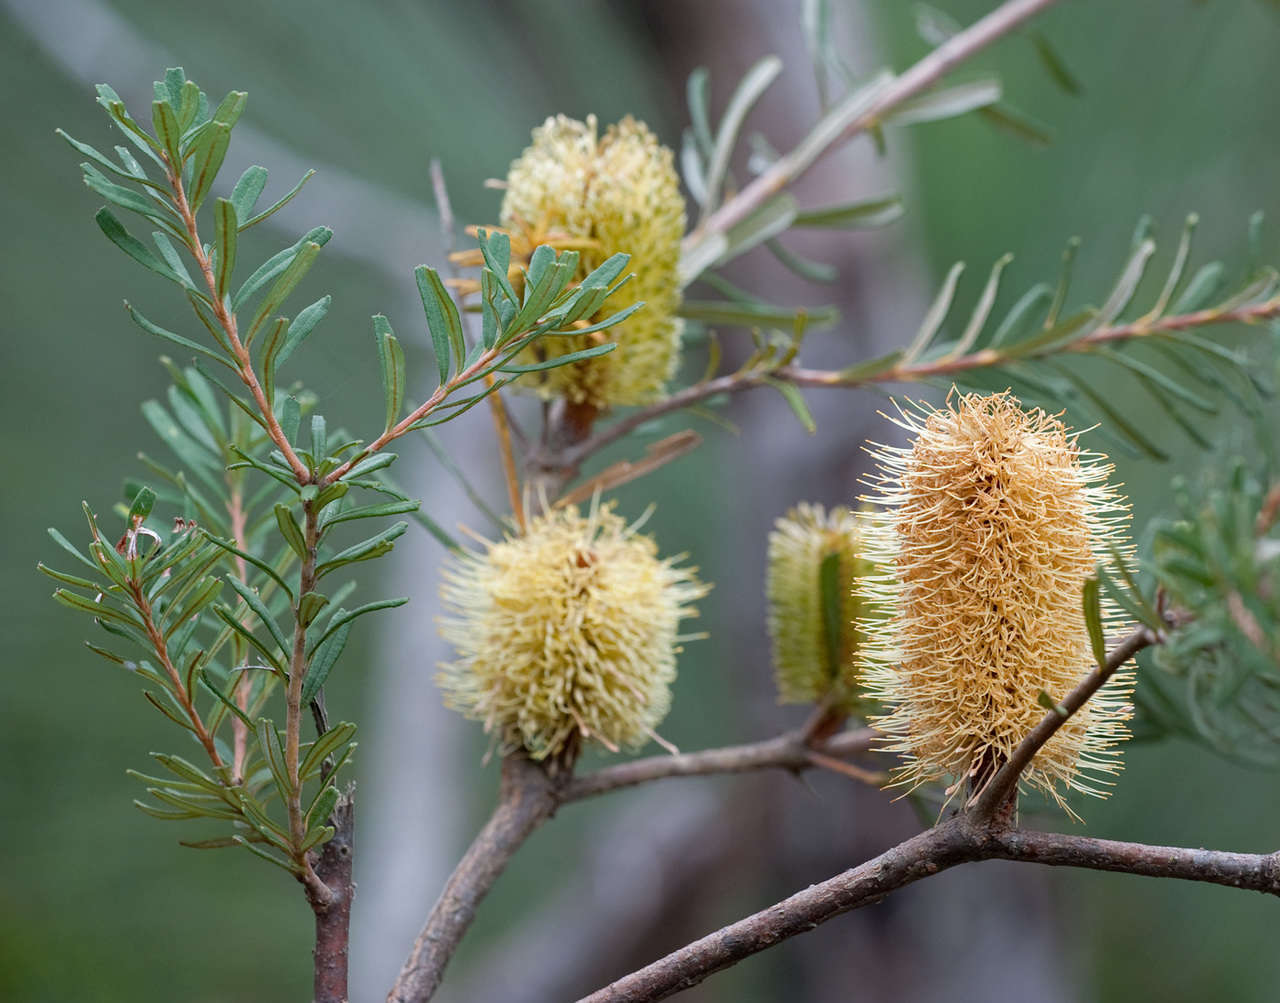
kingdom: Plantae
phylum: Tracheophyta
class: Magnoliopsida
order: Proteales
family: Proteaceae
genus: Banksia
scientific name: Banksia marginata
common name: Silver banksia
